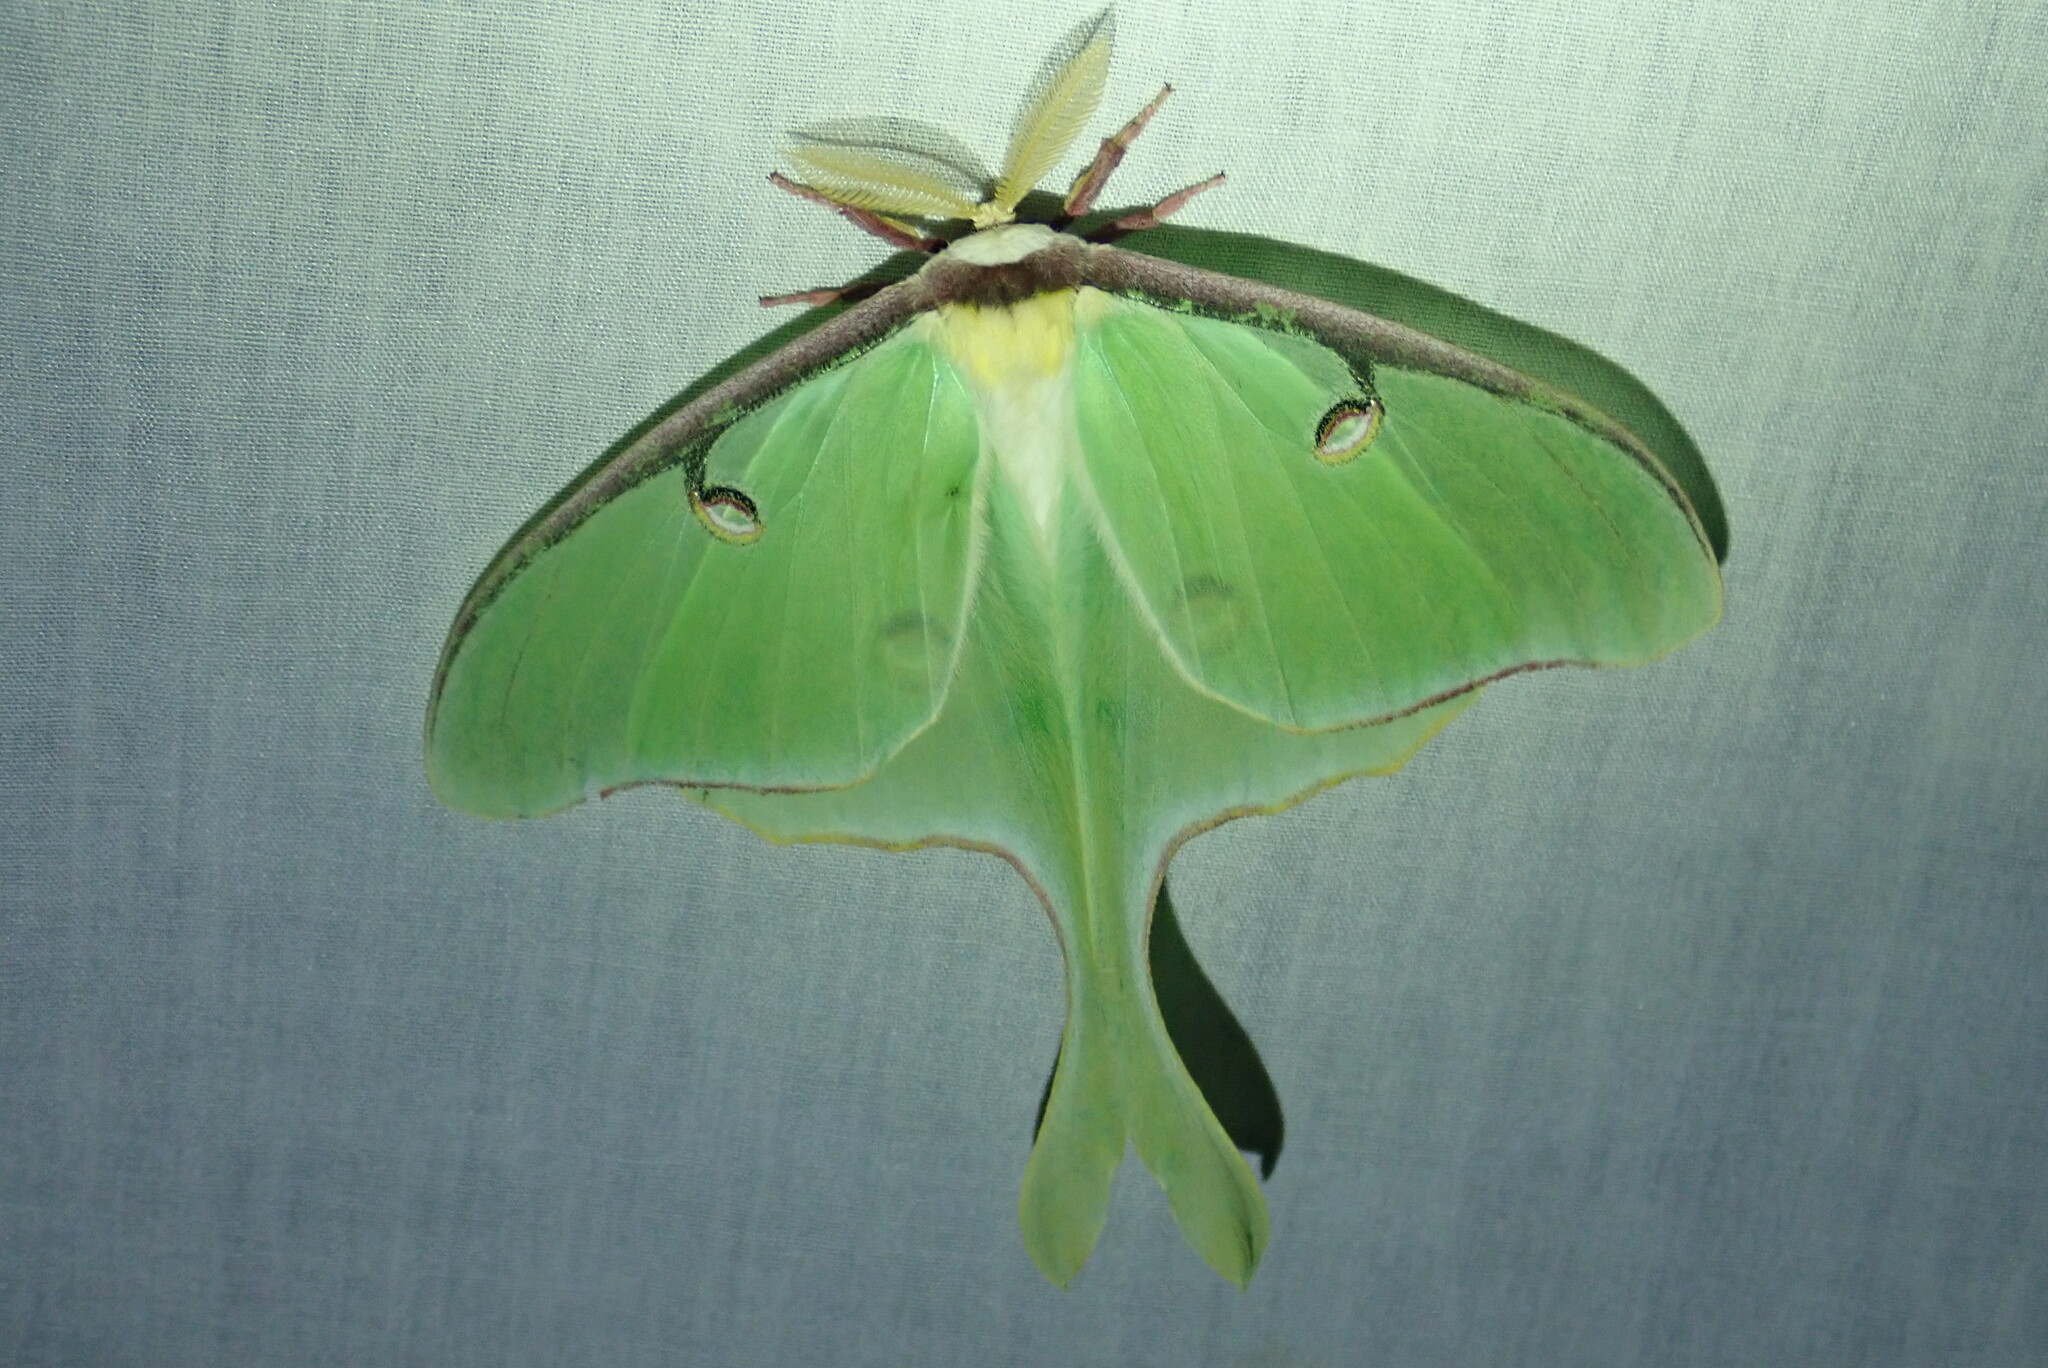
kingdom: Animalia
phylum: Arthropoda
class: Insecta
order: Lepidoptera
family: Saturniidae
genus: Actias
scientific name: Actias luna
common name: Luna moth
